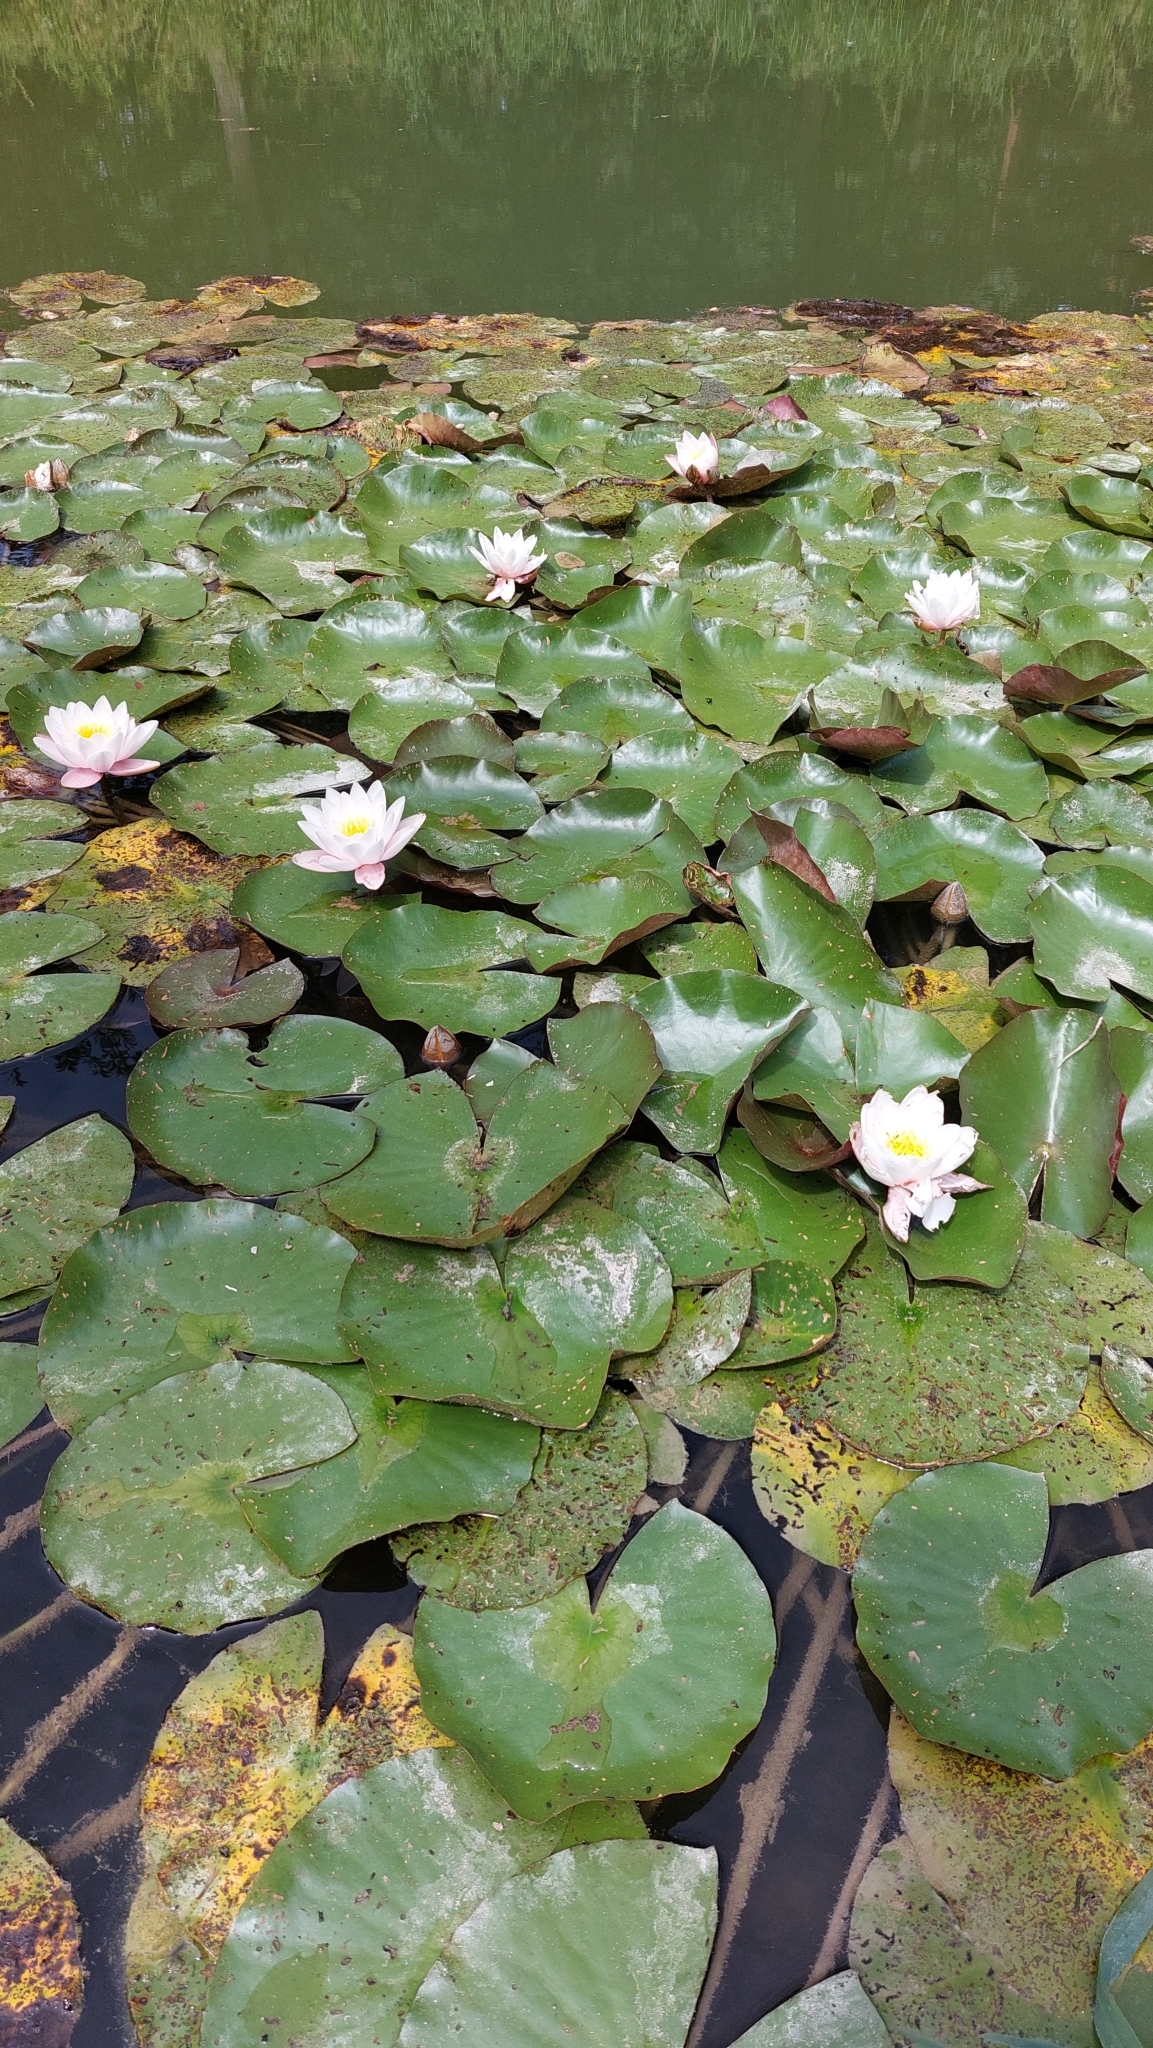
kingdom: Plantae
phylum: Tracheophyta
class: Magnoliopsida
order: Nymphaeales
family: Nymphaeaceae
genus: Nymphaea
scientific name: Nymphaea alba
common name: White water-lily
